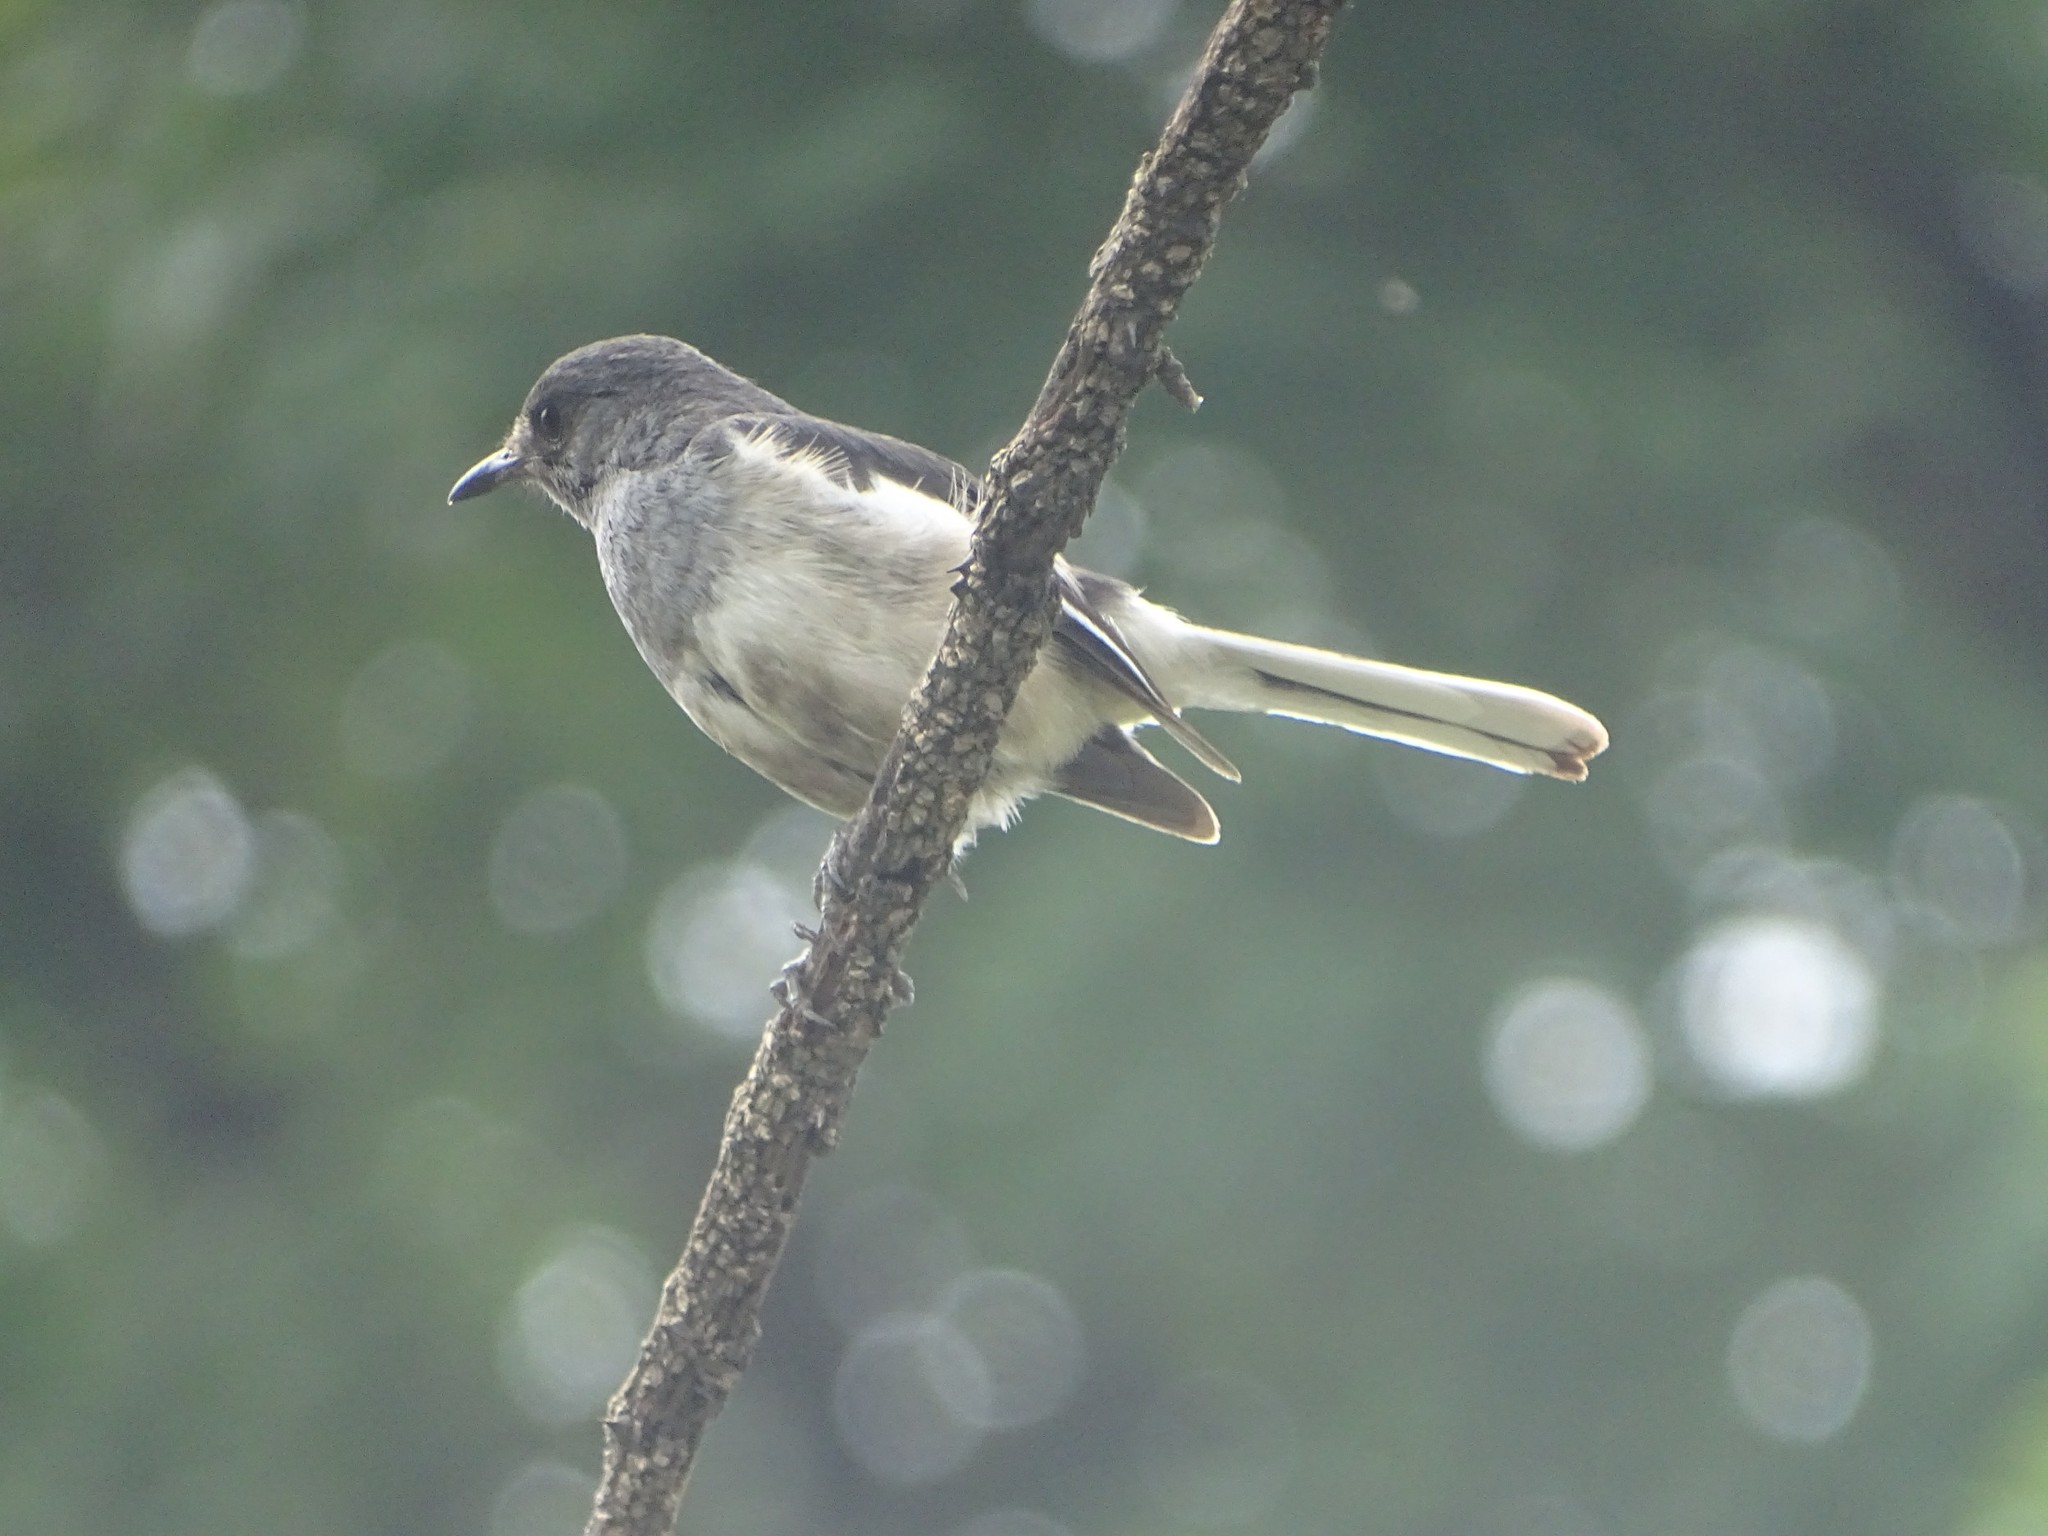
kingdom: Animalia
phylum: Chordata
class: Aves
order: Passeriformes
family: Muscicapidae
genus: Copsychus
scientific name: Copsychus saularis
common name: Oriental magpie-robin
